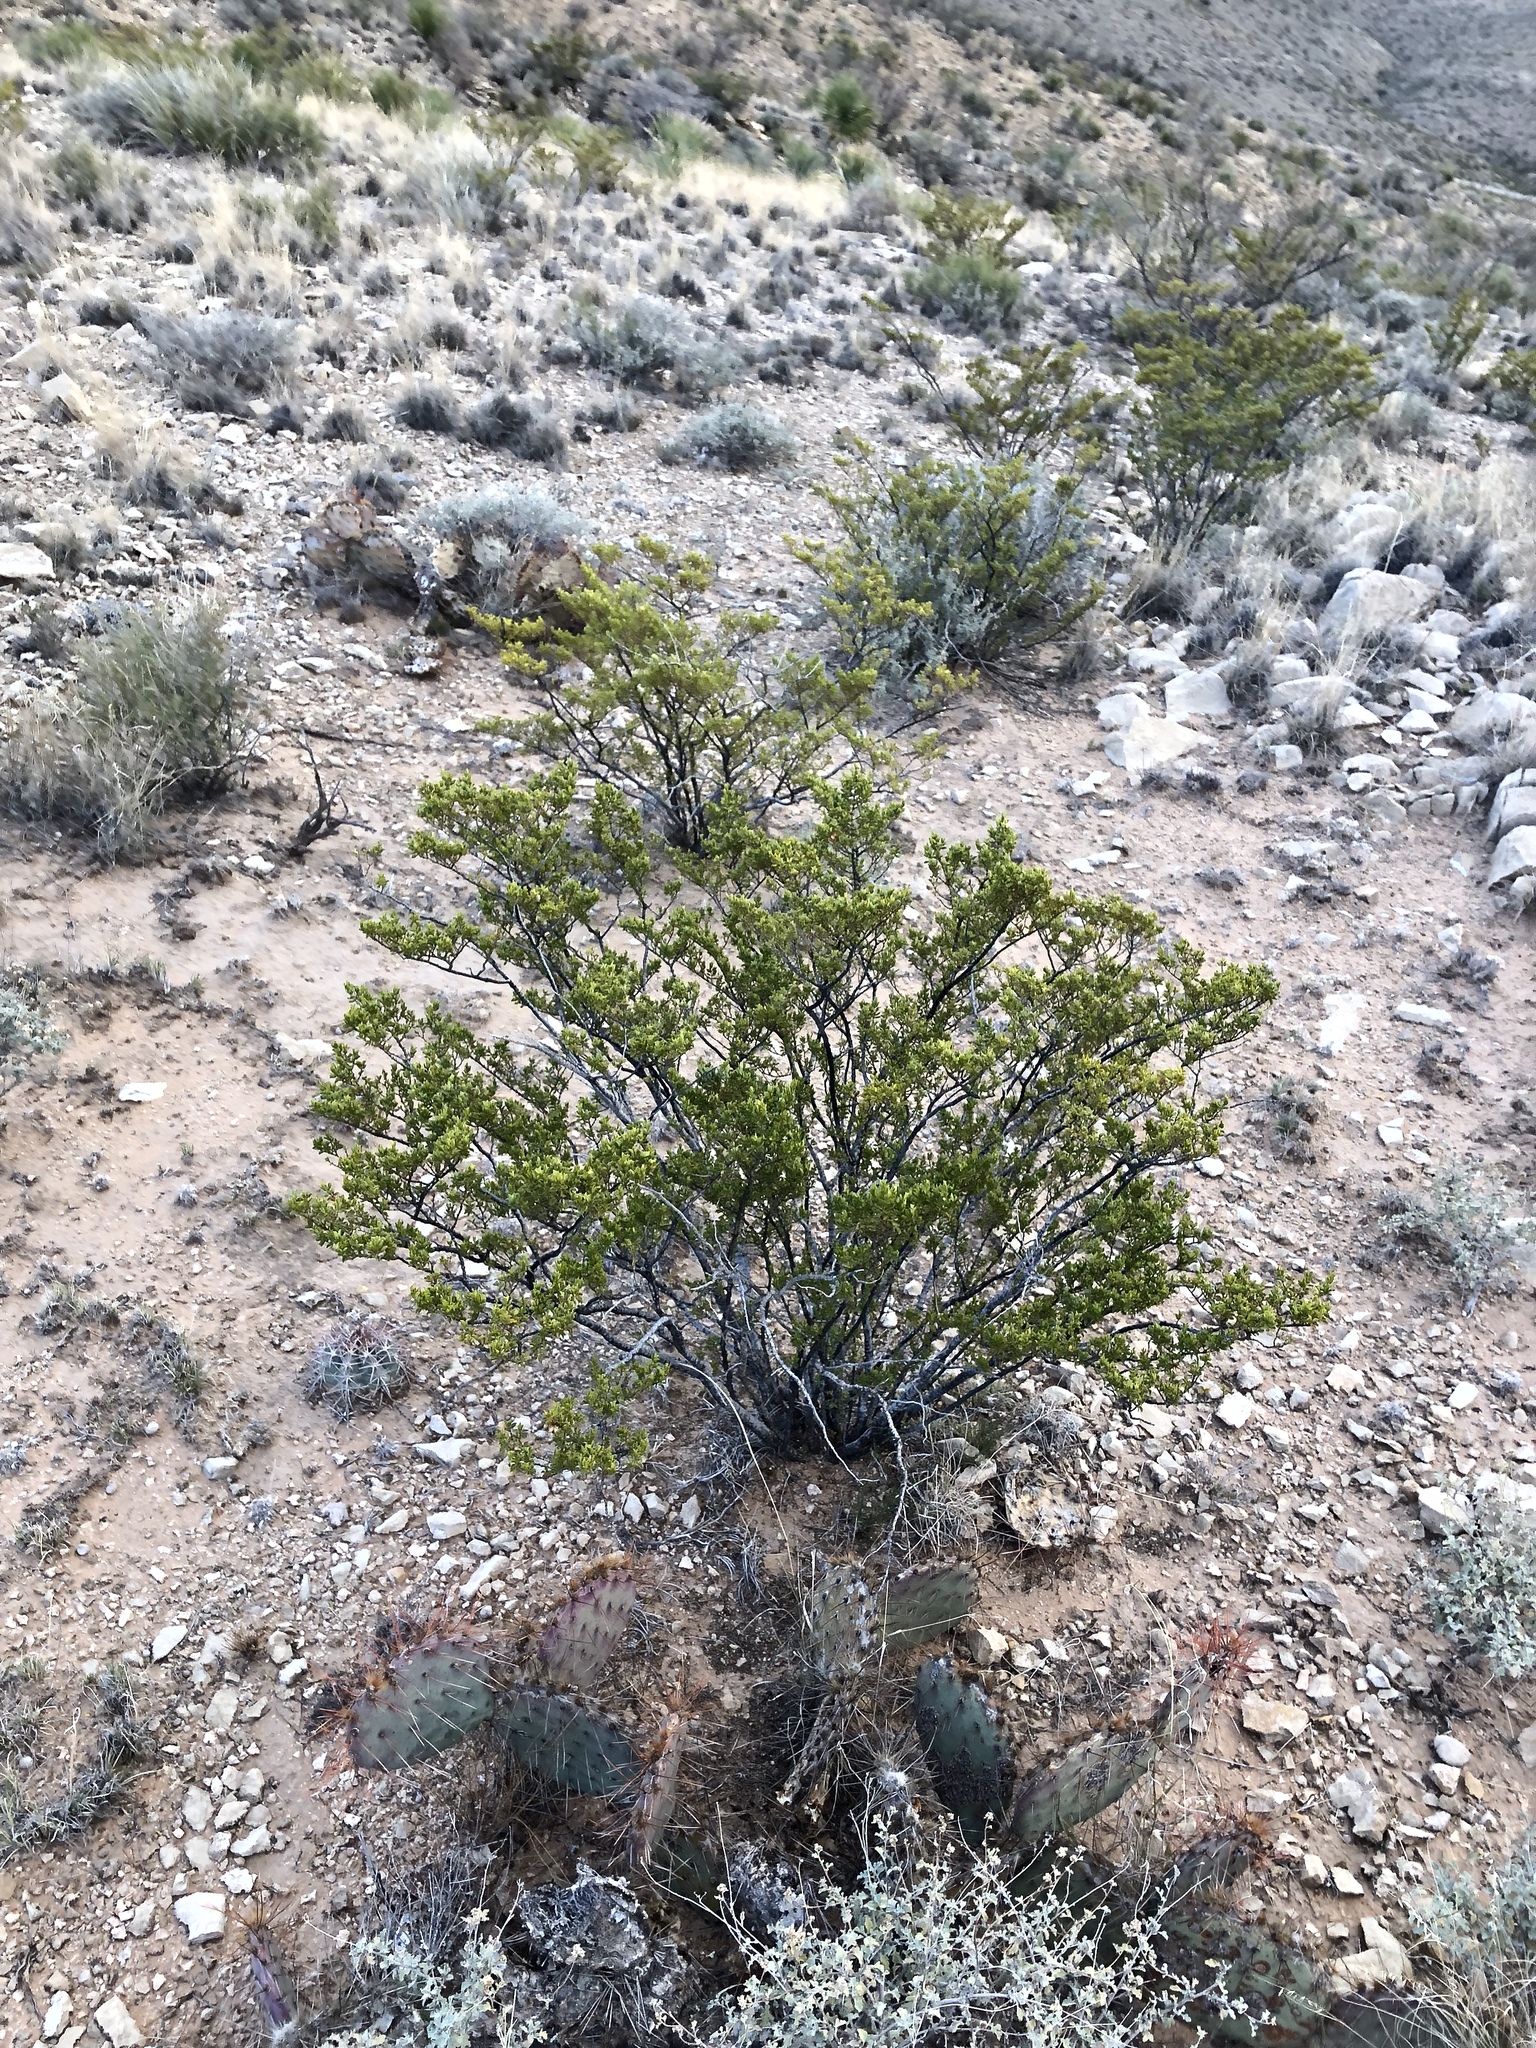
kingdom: Plantae
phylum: Tracheophyta
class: Magnoliopsida
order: Zygophyllales
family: Zygophyllaceae
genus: Larrea
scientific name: Larrea tridentata
